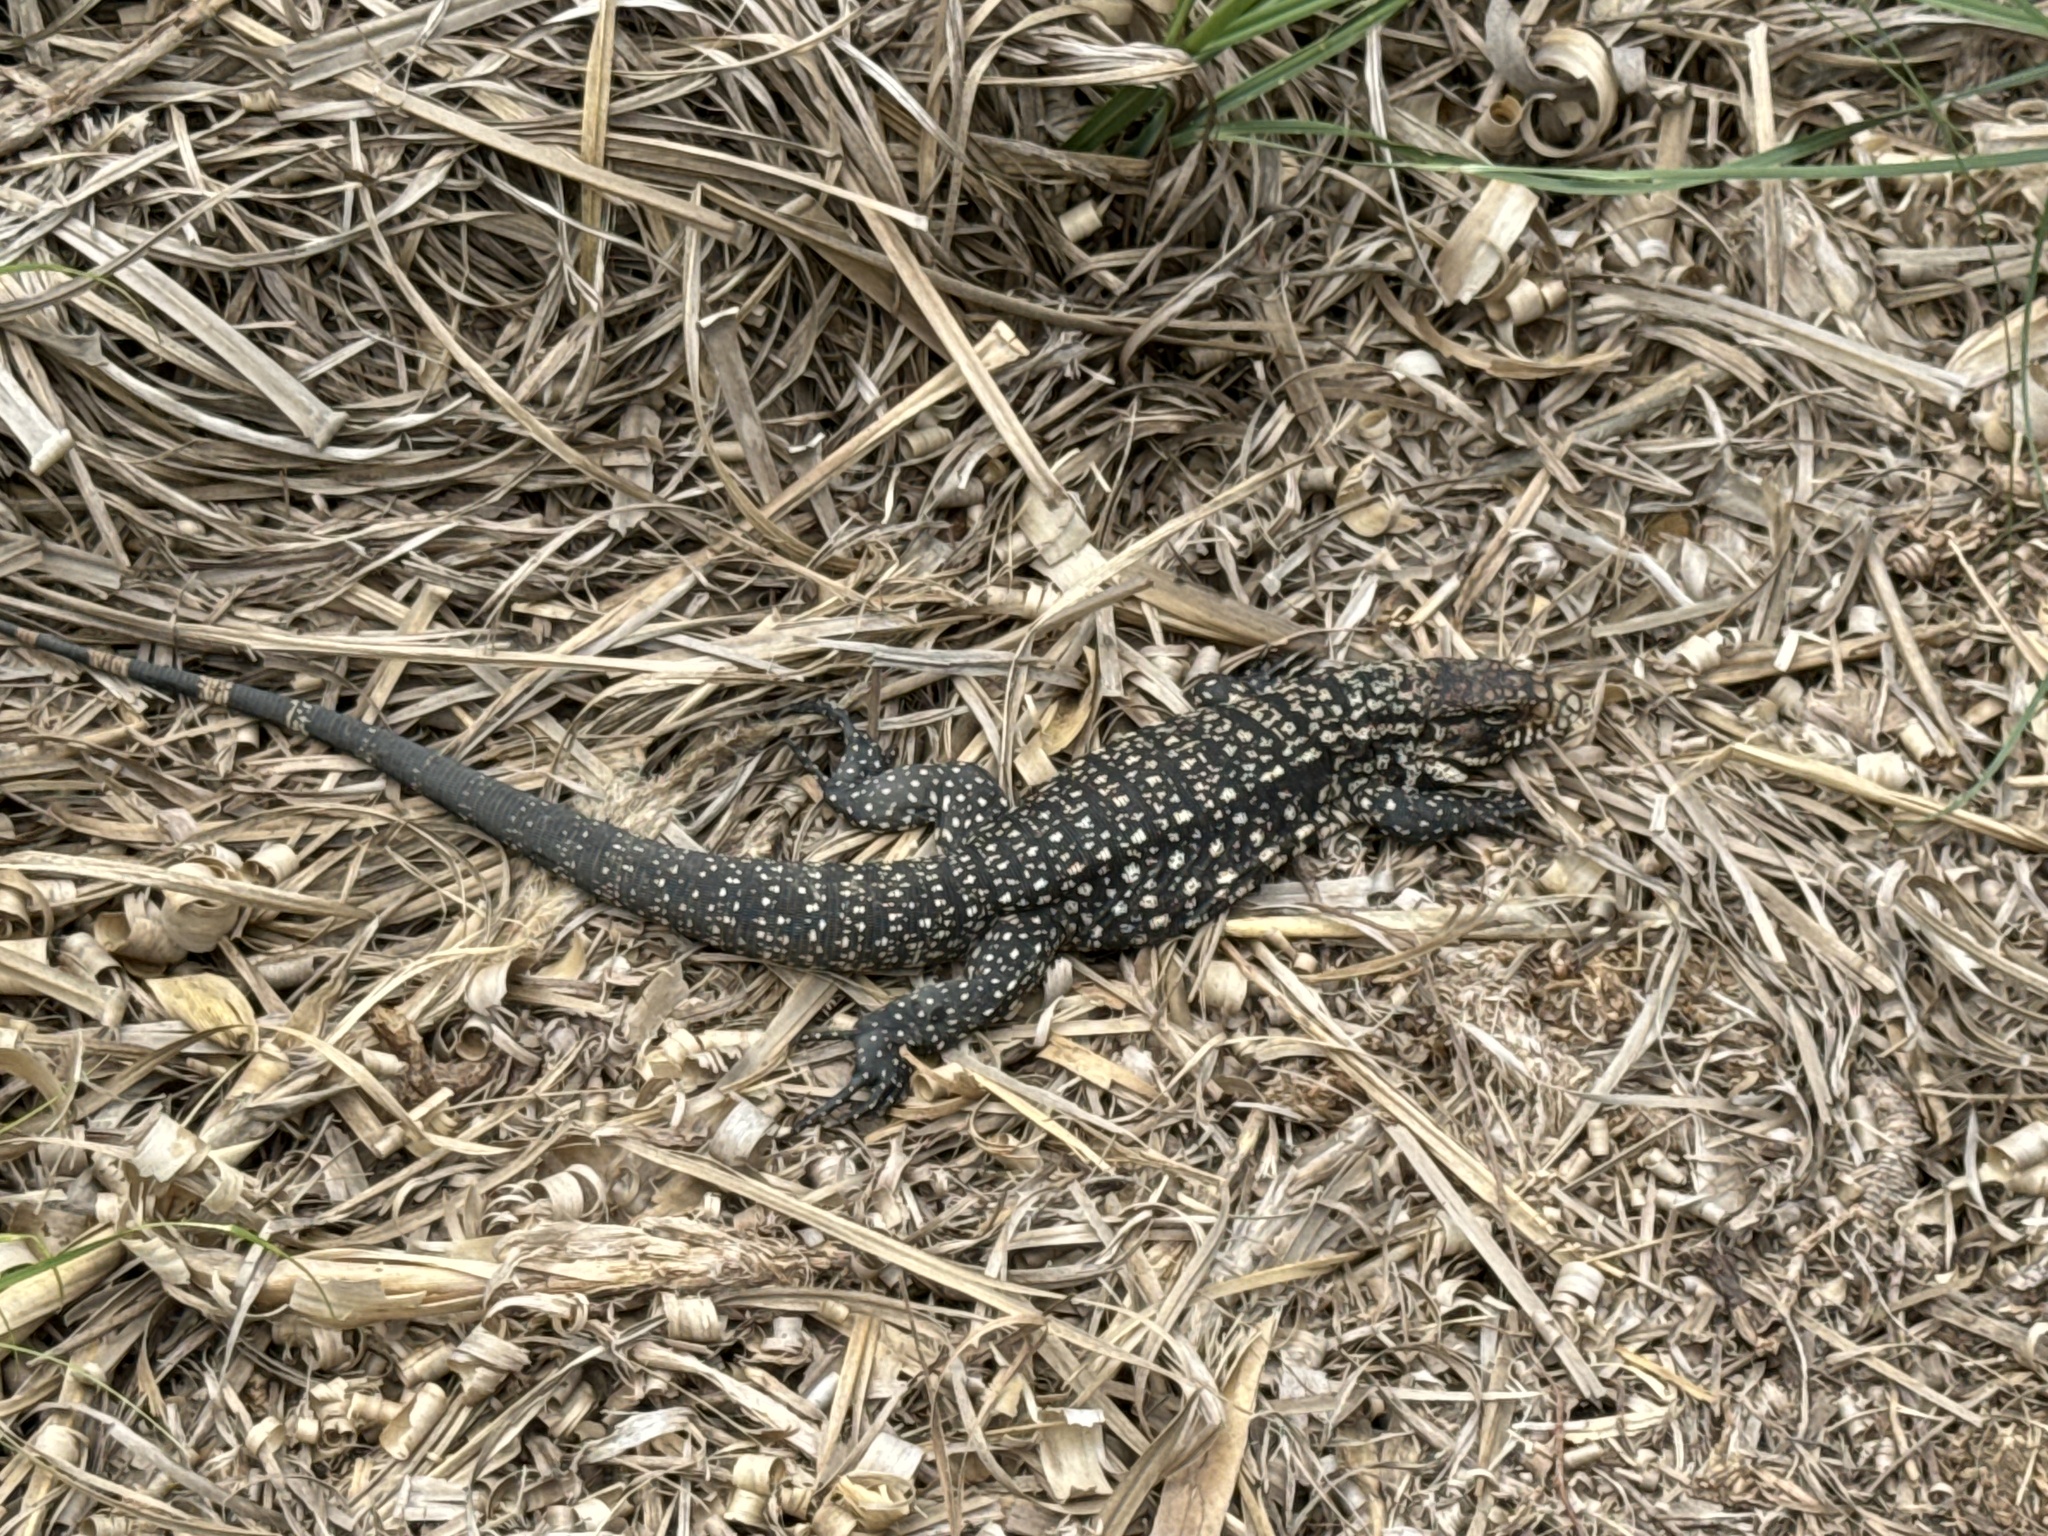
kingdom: Animalia
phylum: Chordata
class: Squamata
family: Teiidae
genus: Salvator
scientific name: Salvator merianae
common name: Argentine black and white tegu
